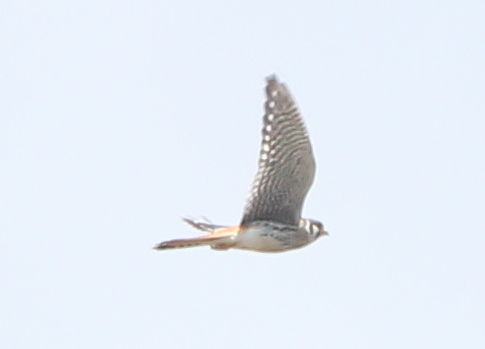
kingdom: Animalia
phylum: Chordata
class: Aves
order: Falconiformes
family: Falconidae
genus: Falco
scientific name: Falco sparverius
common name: American kestrel
